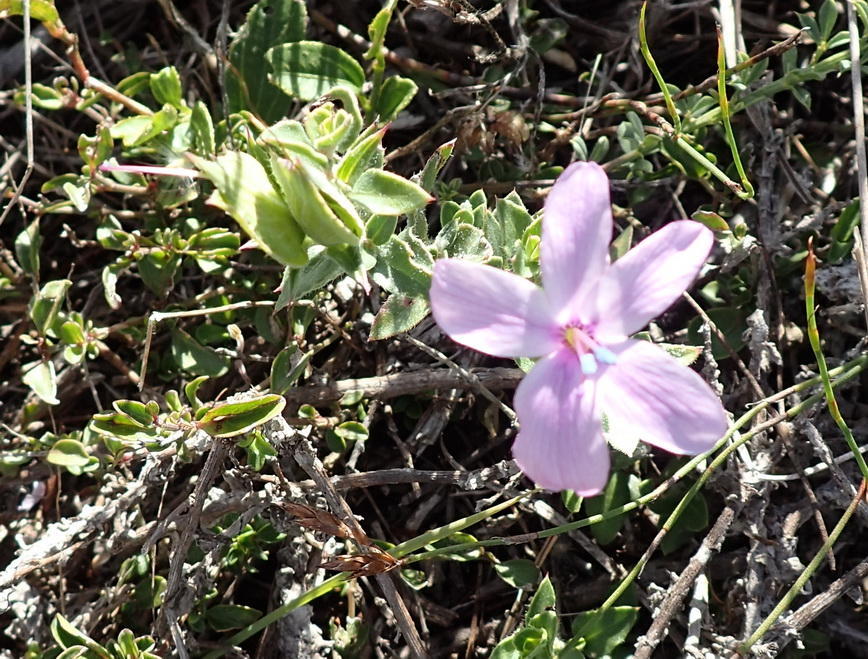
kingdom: Plantae
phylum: Tracheophyta
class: Magnoliopsida
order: Lamiales
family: Acanthaceae
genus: Barleria
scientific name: Barleria pungens
